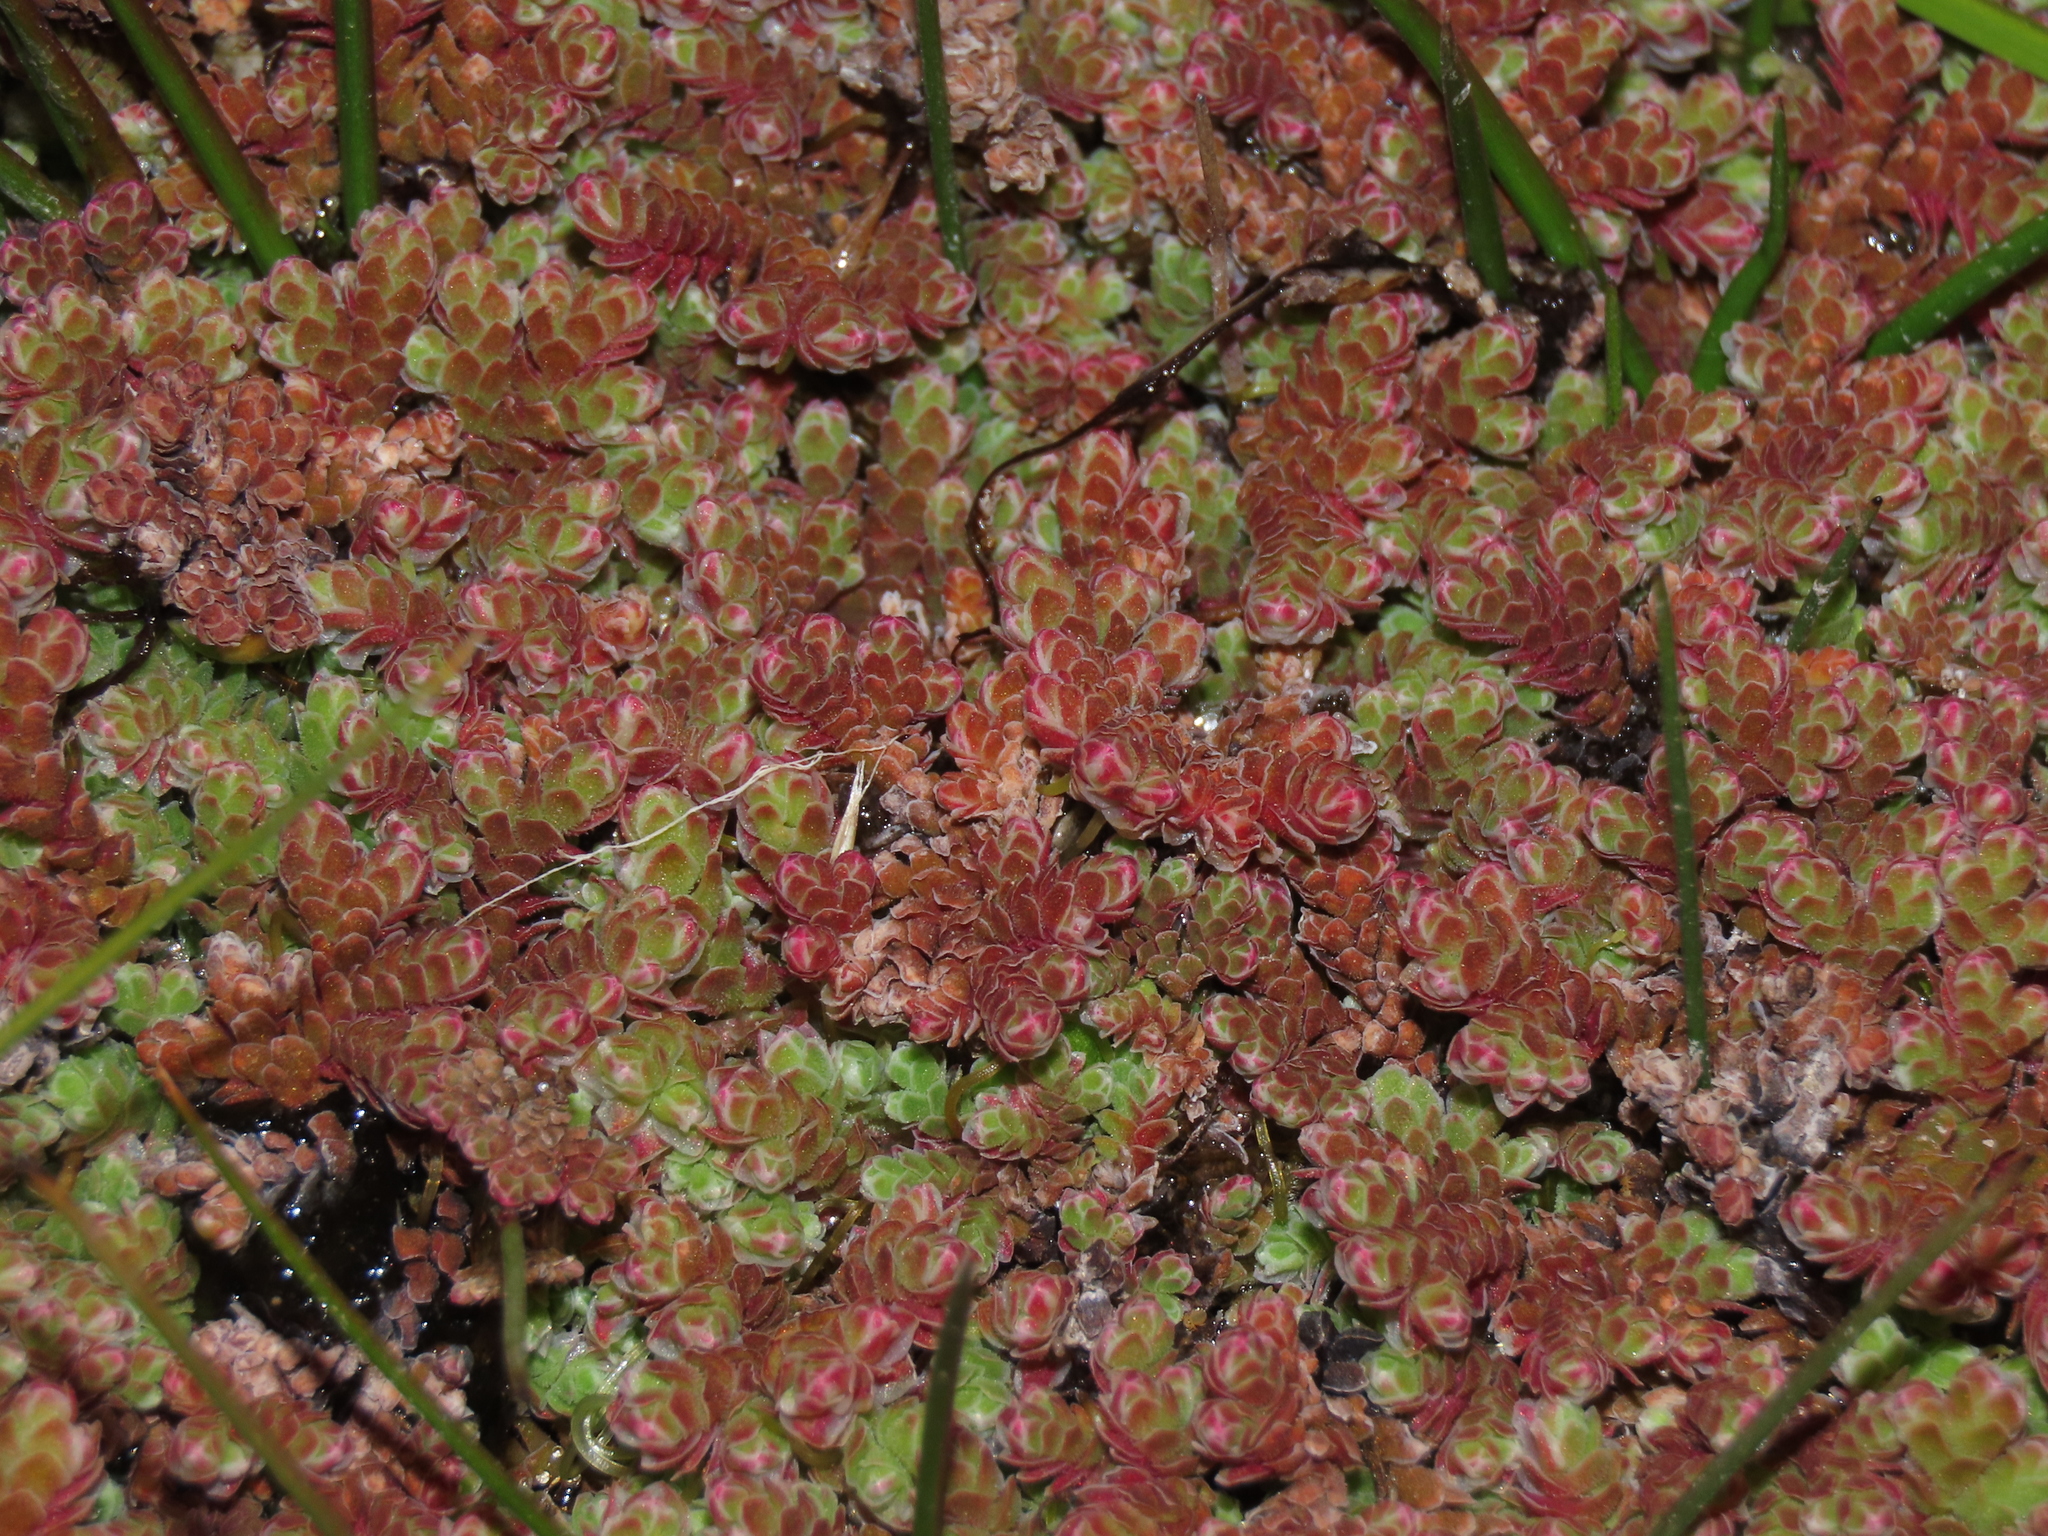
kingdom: Plantae
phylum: Tracheophyta
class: Polypodiopsida
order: Salviniales
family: Salviniaceae
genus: Azolla
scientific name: Azolla filiculoides
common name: Water fern
